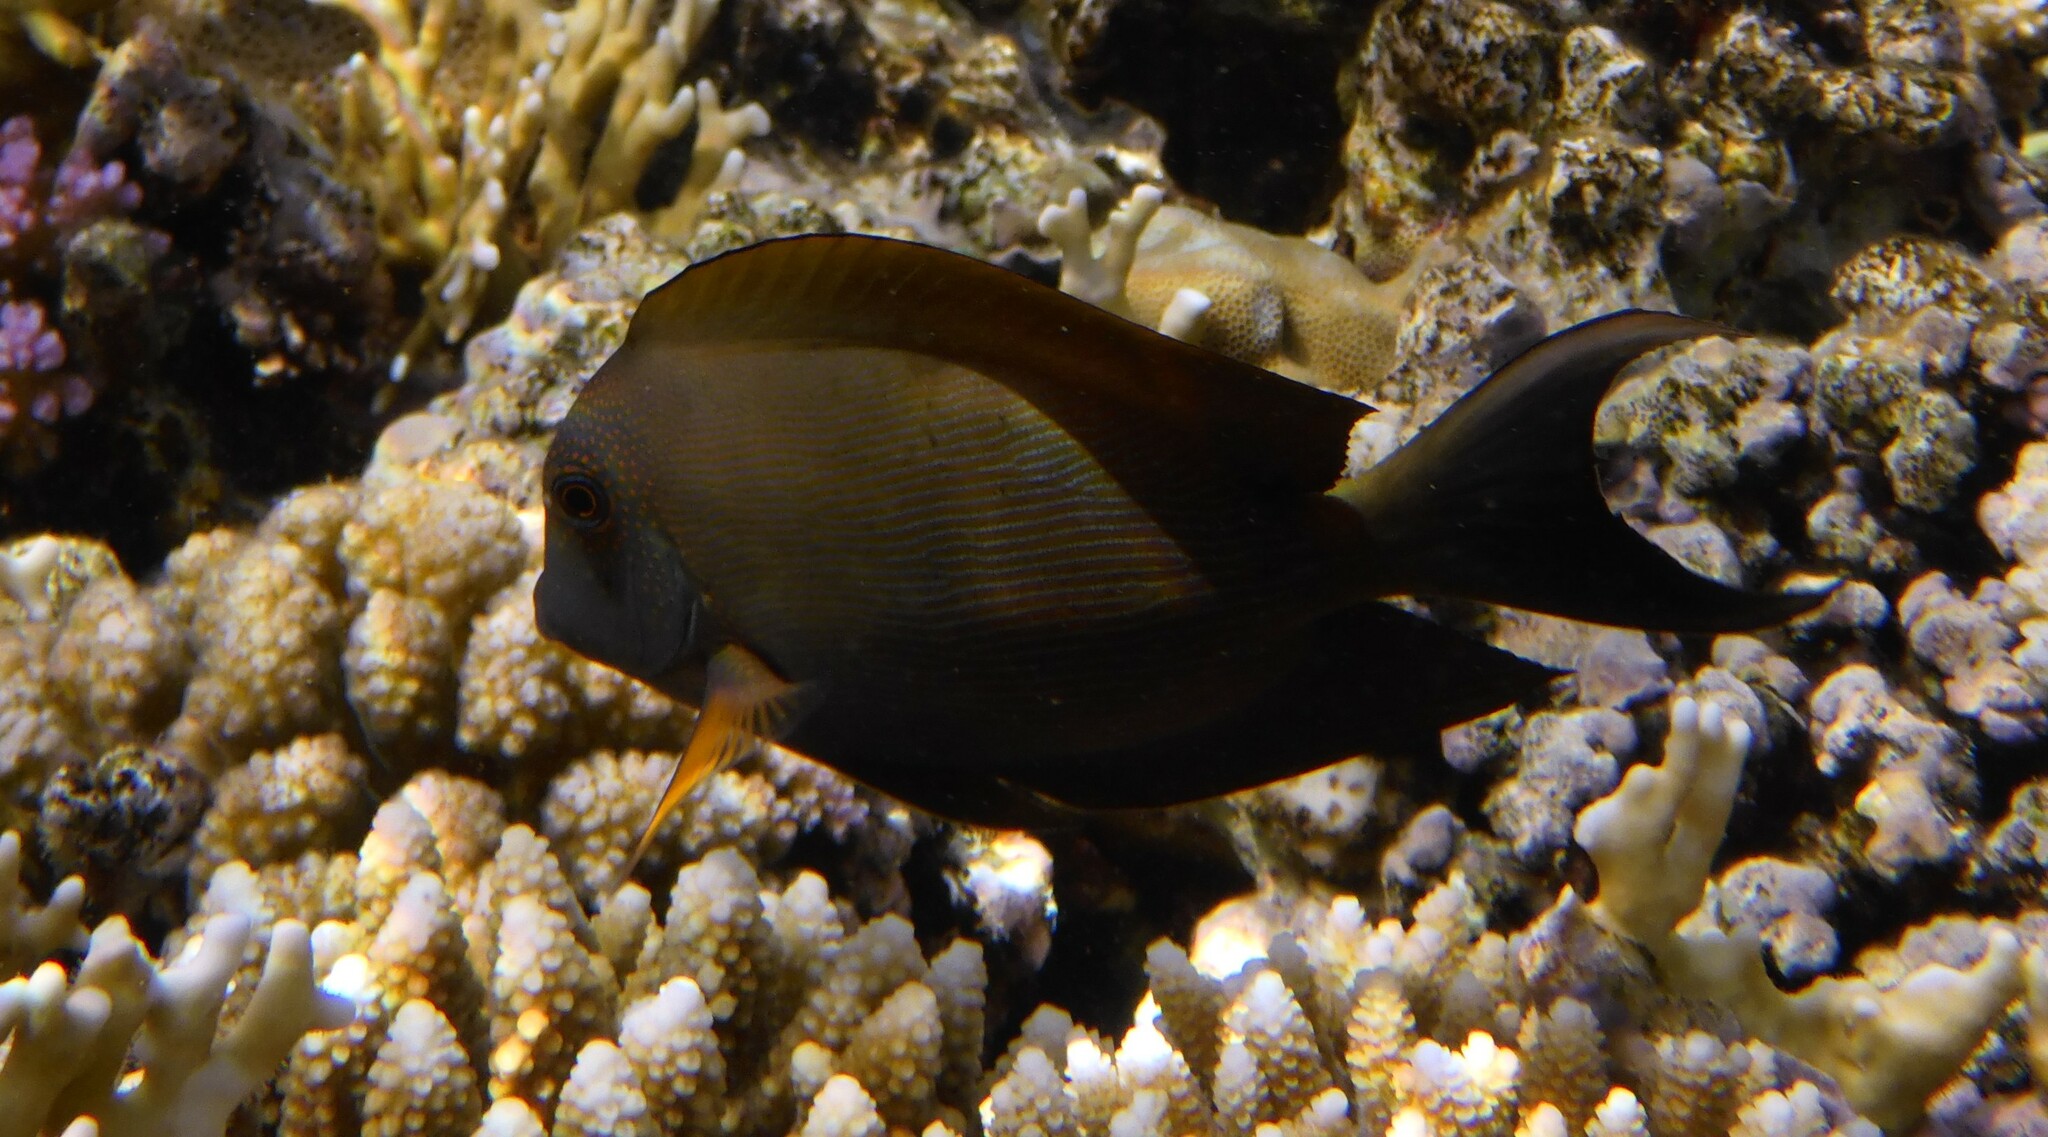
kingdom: Animalia
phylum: Chordata
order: Perciformes
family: Acanthuridae
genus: Ctenochaetus
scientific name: Ctenochaetus striatus
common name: Bristle-toothed surgeonfish
